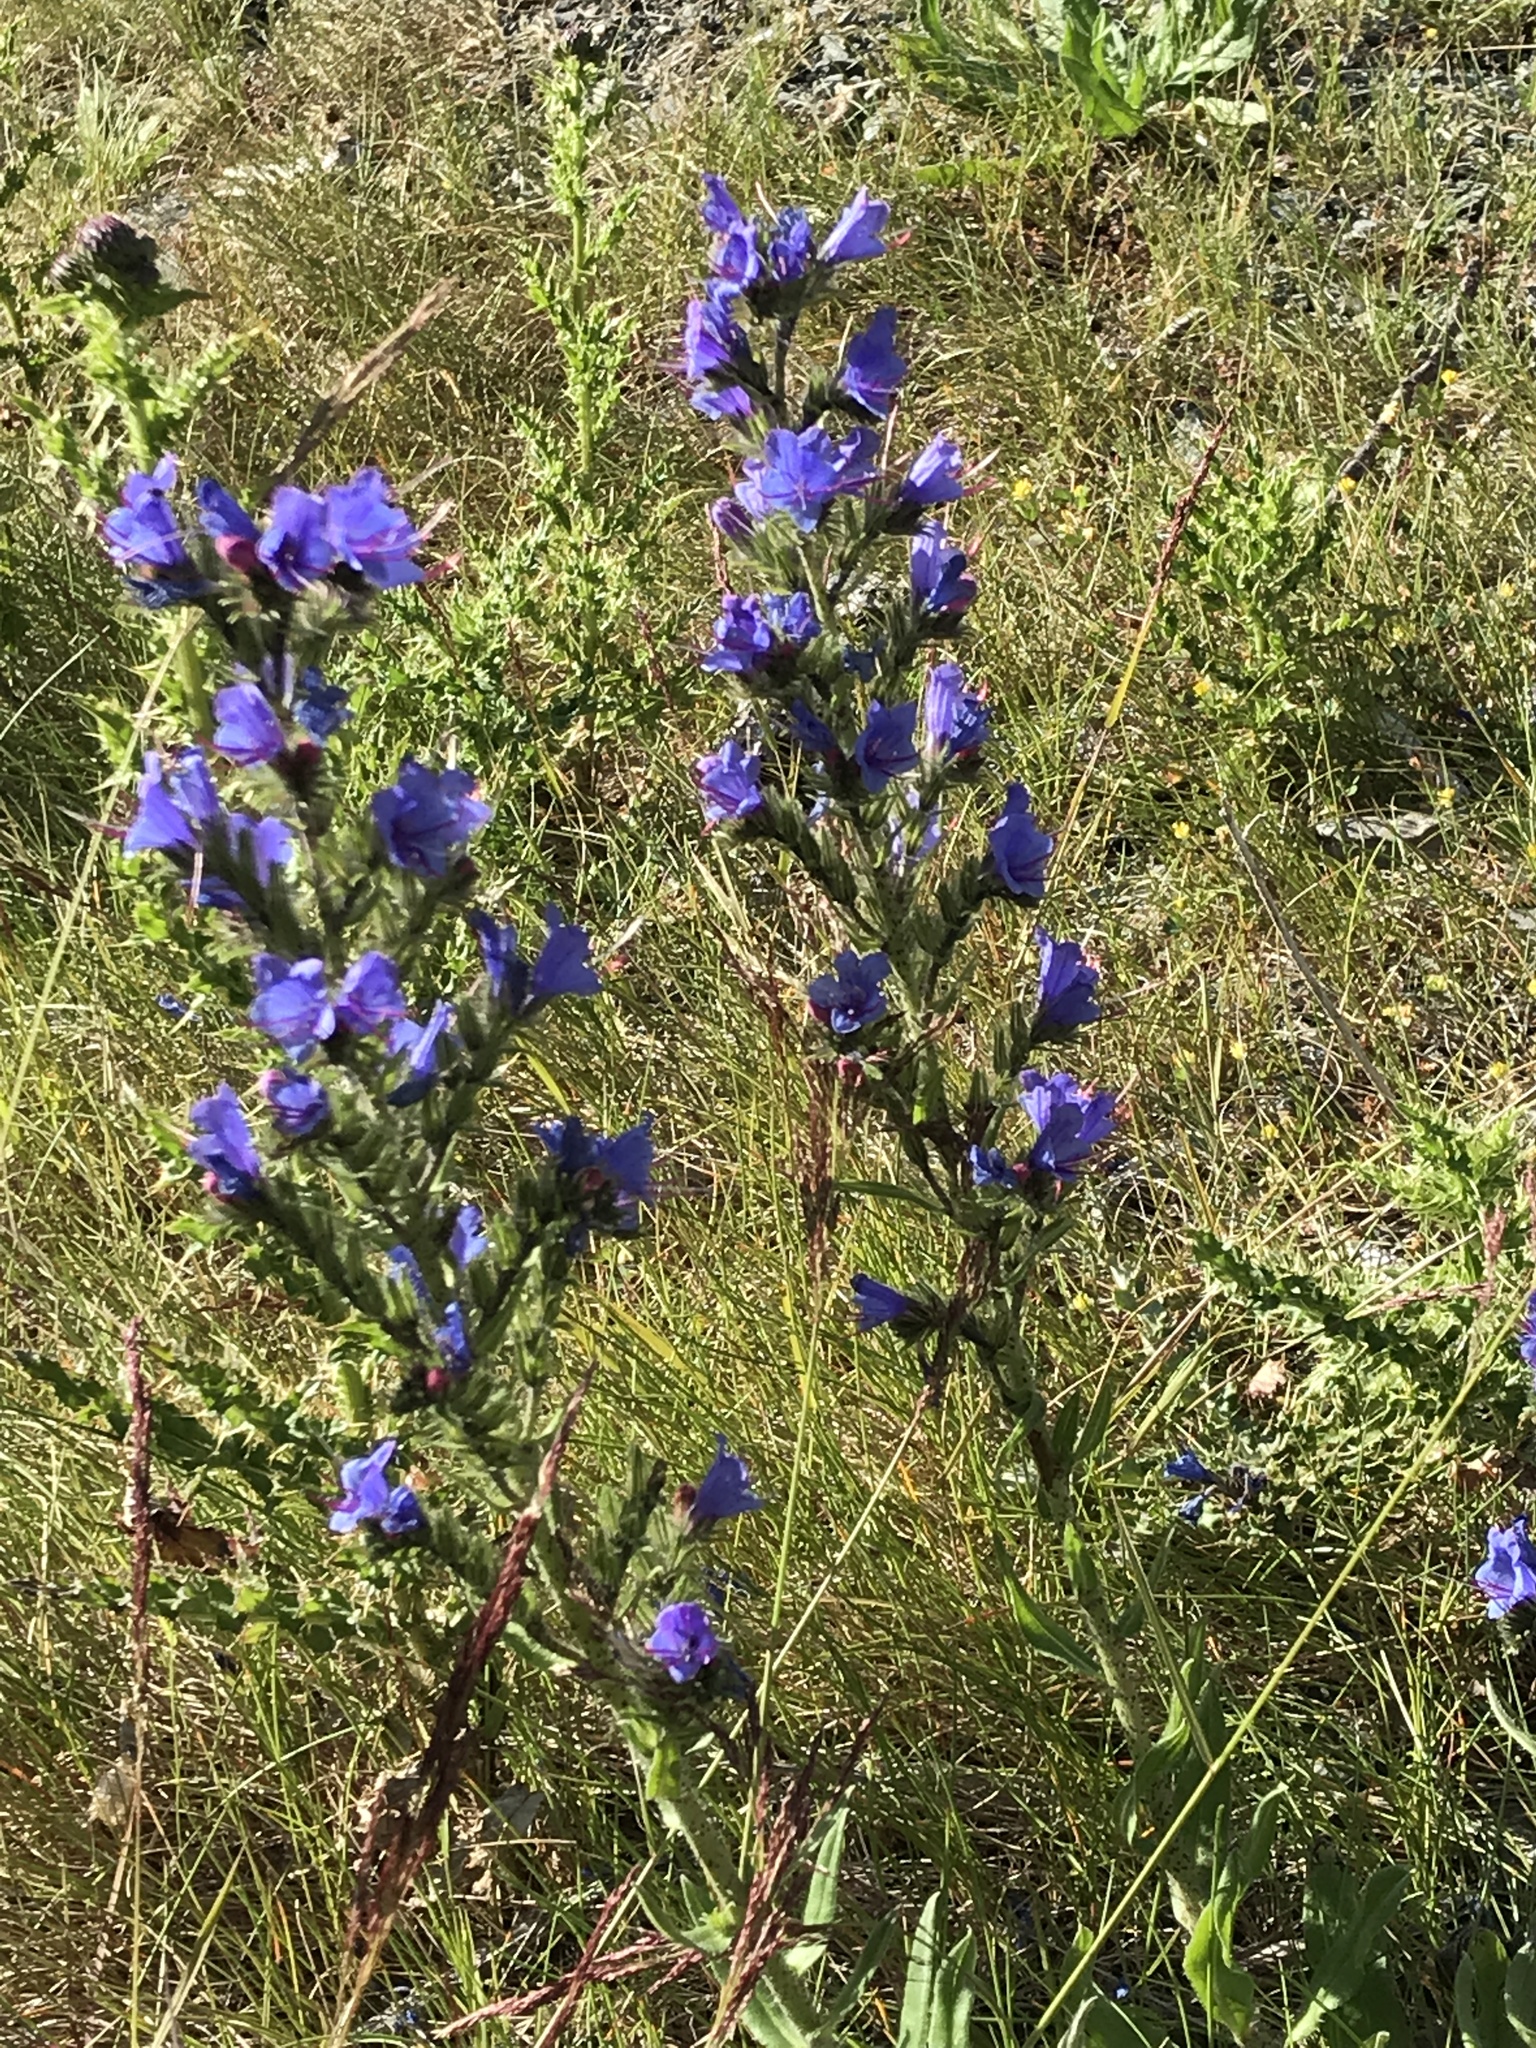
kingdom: Plantae
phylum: Tracheophyta
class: Magnoliopsida
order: Boraginales
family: Boraginaceae
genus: Echium
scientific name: Echium vulgare
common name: Common viper's bugloss
